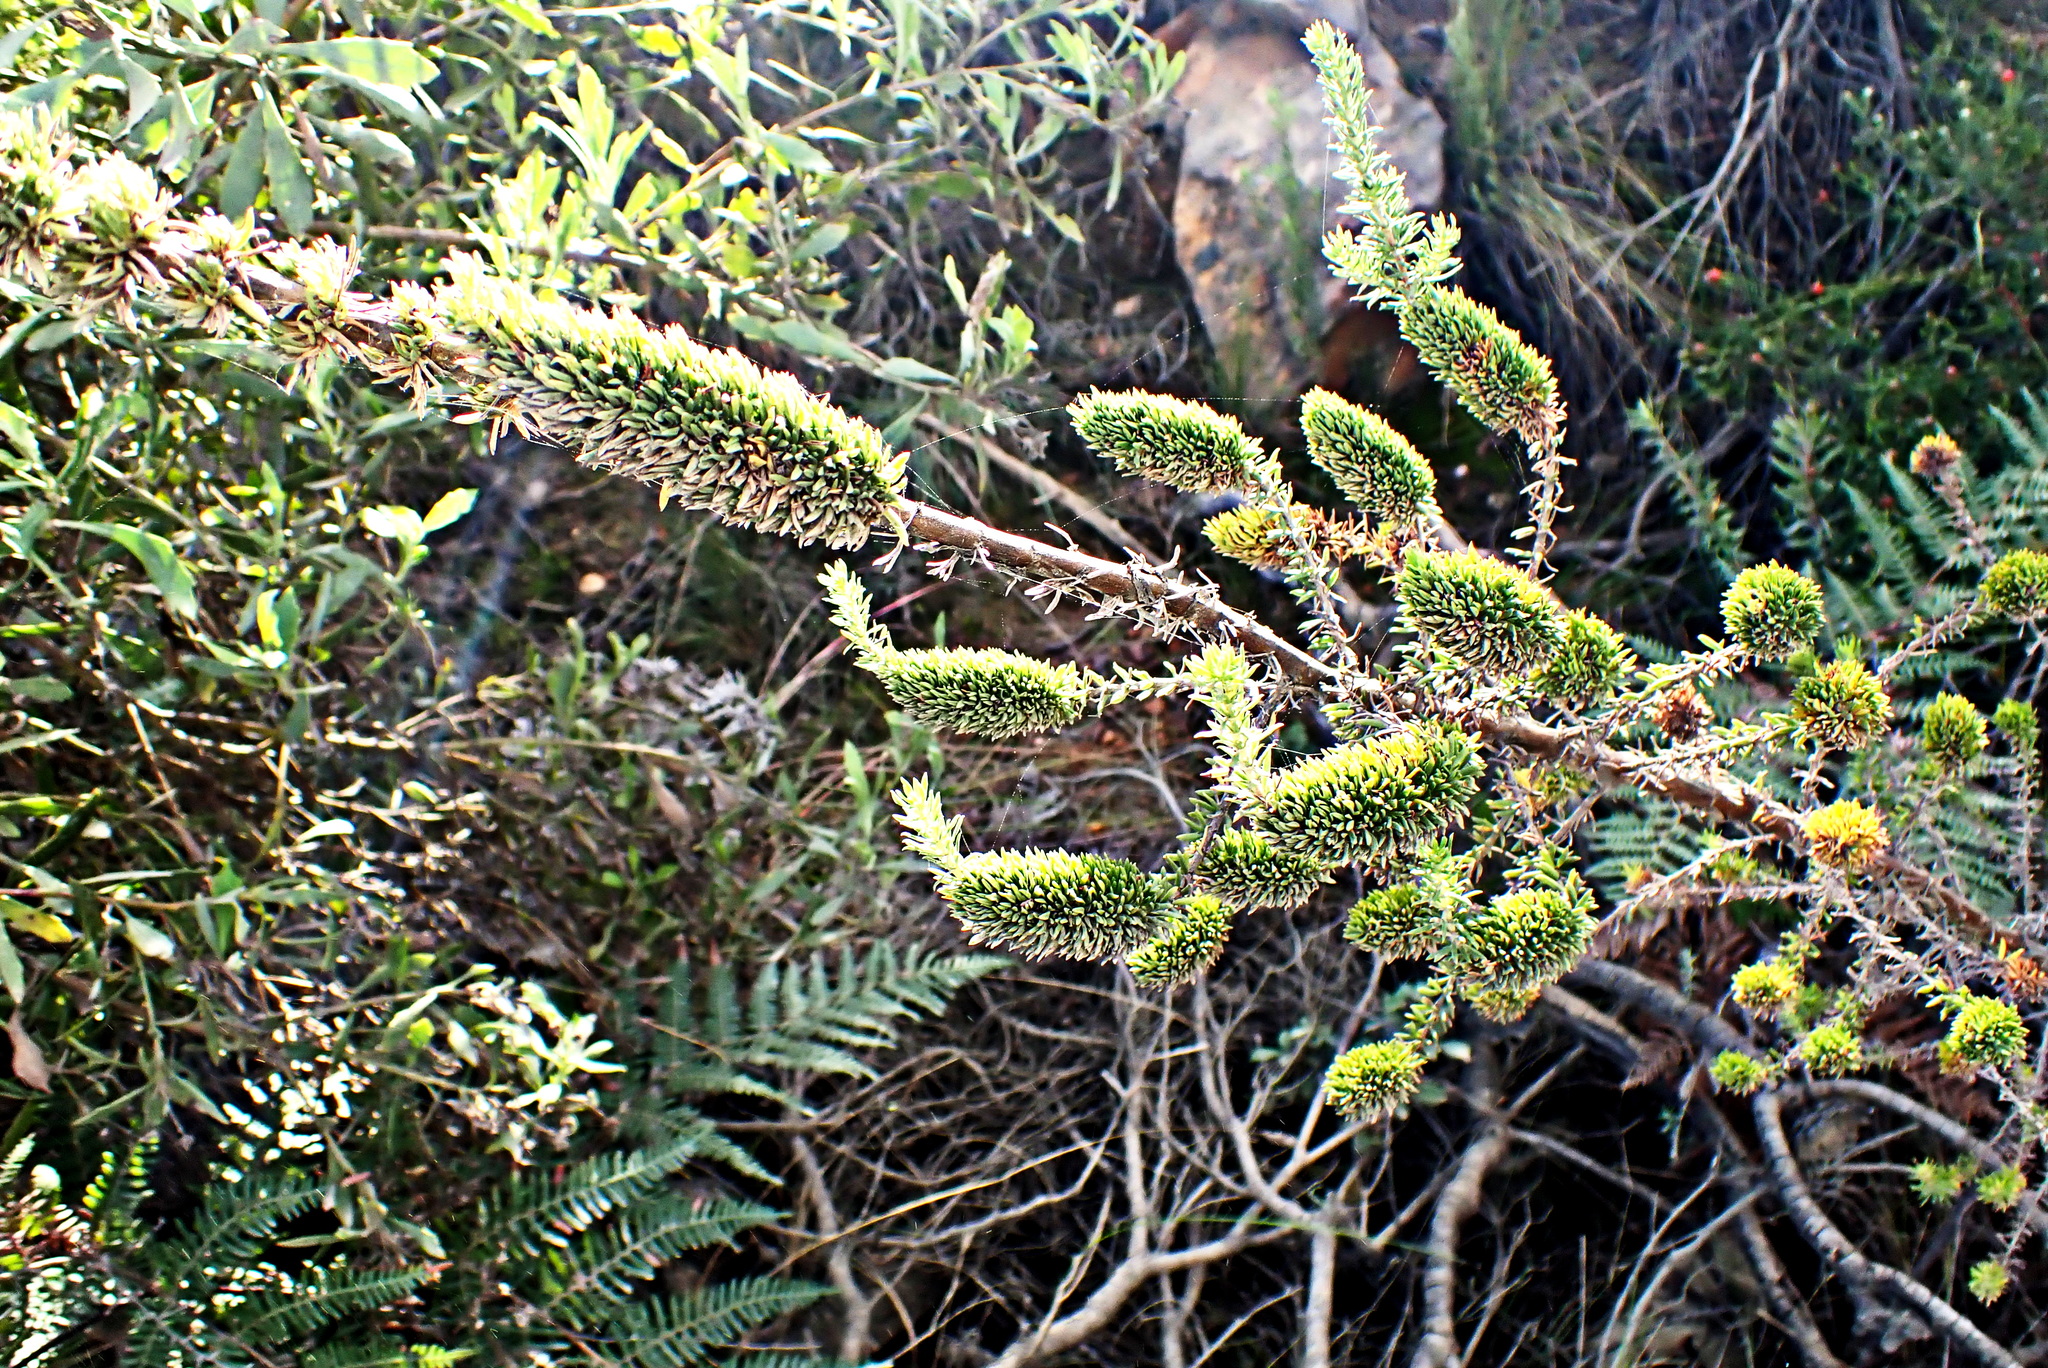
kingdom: Plantae
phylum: Tracheophyta
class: Magnoliopsida
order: Gentianales
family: Rubiaceae
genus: Anthospermum
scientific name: Anthospermum aethiopicum
